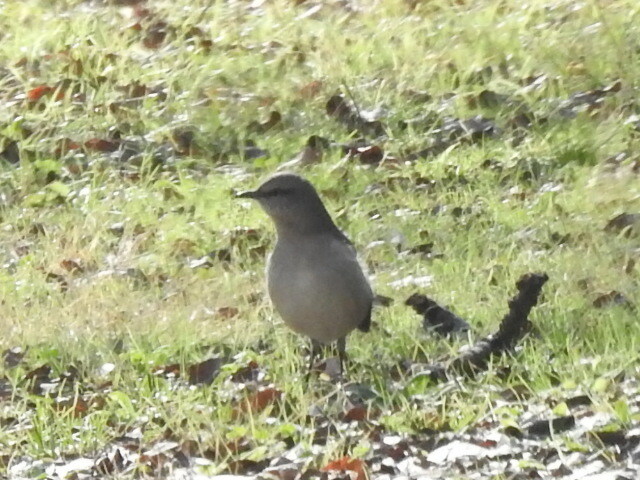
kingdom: Animalia
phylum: Chordata
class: Aves
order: Passeriformes
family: Mimidae
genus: Mimus
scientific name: Mimus polyglottos
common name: Northern mockingbird
